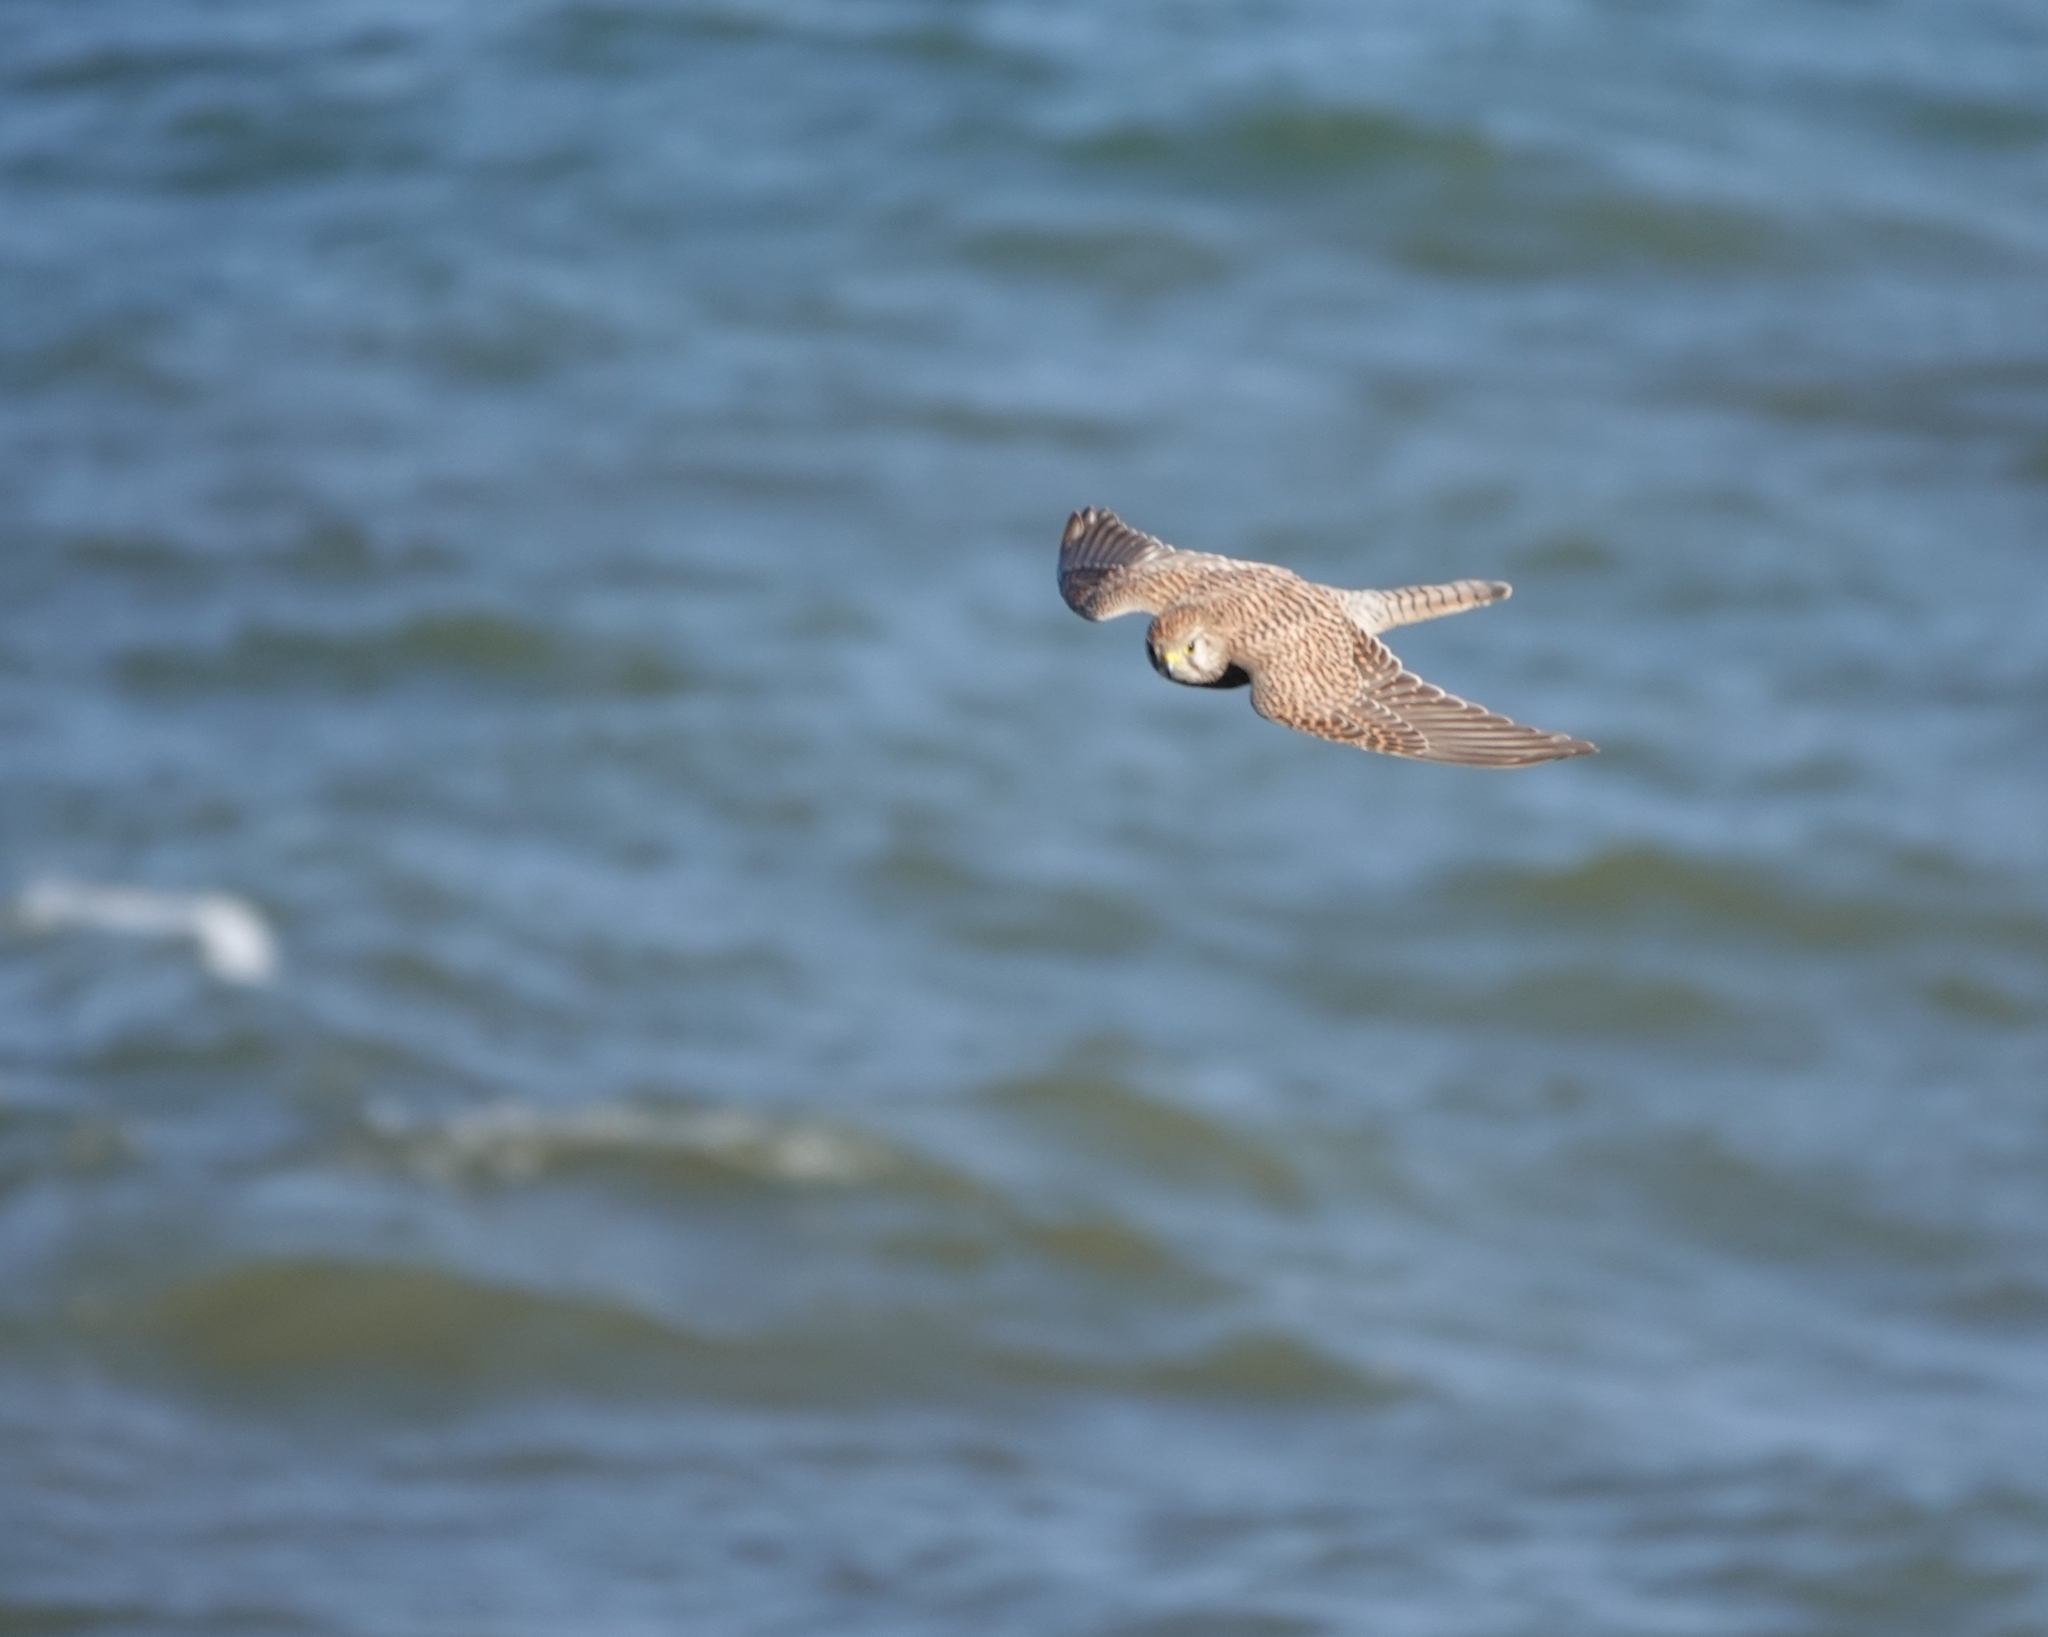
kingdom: Animalia
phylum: Chordata
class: Aves
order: Falconiformes
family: Falconidae
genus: Falco
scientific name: Falco tinnunculus
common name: Common kestrel
